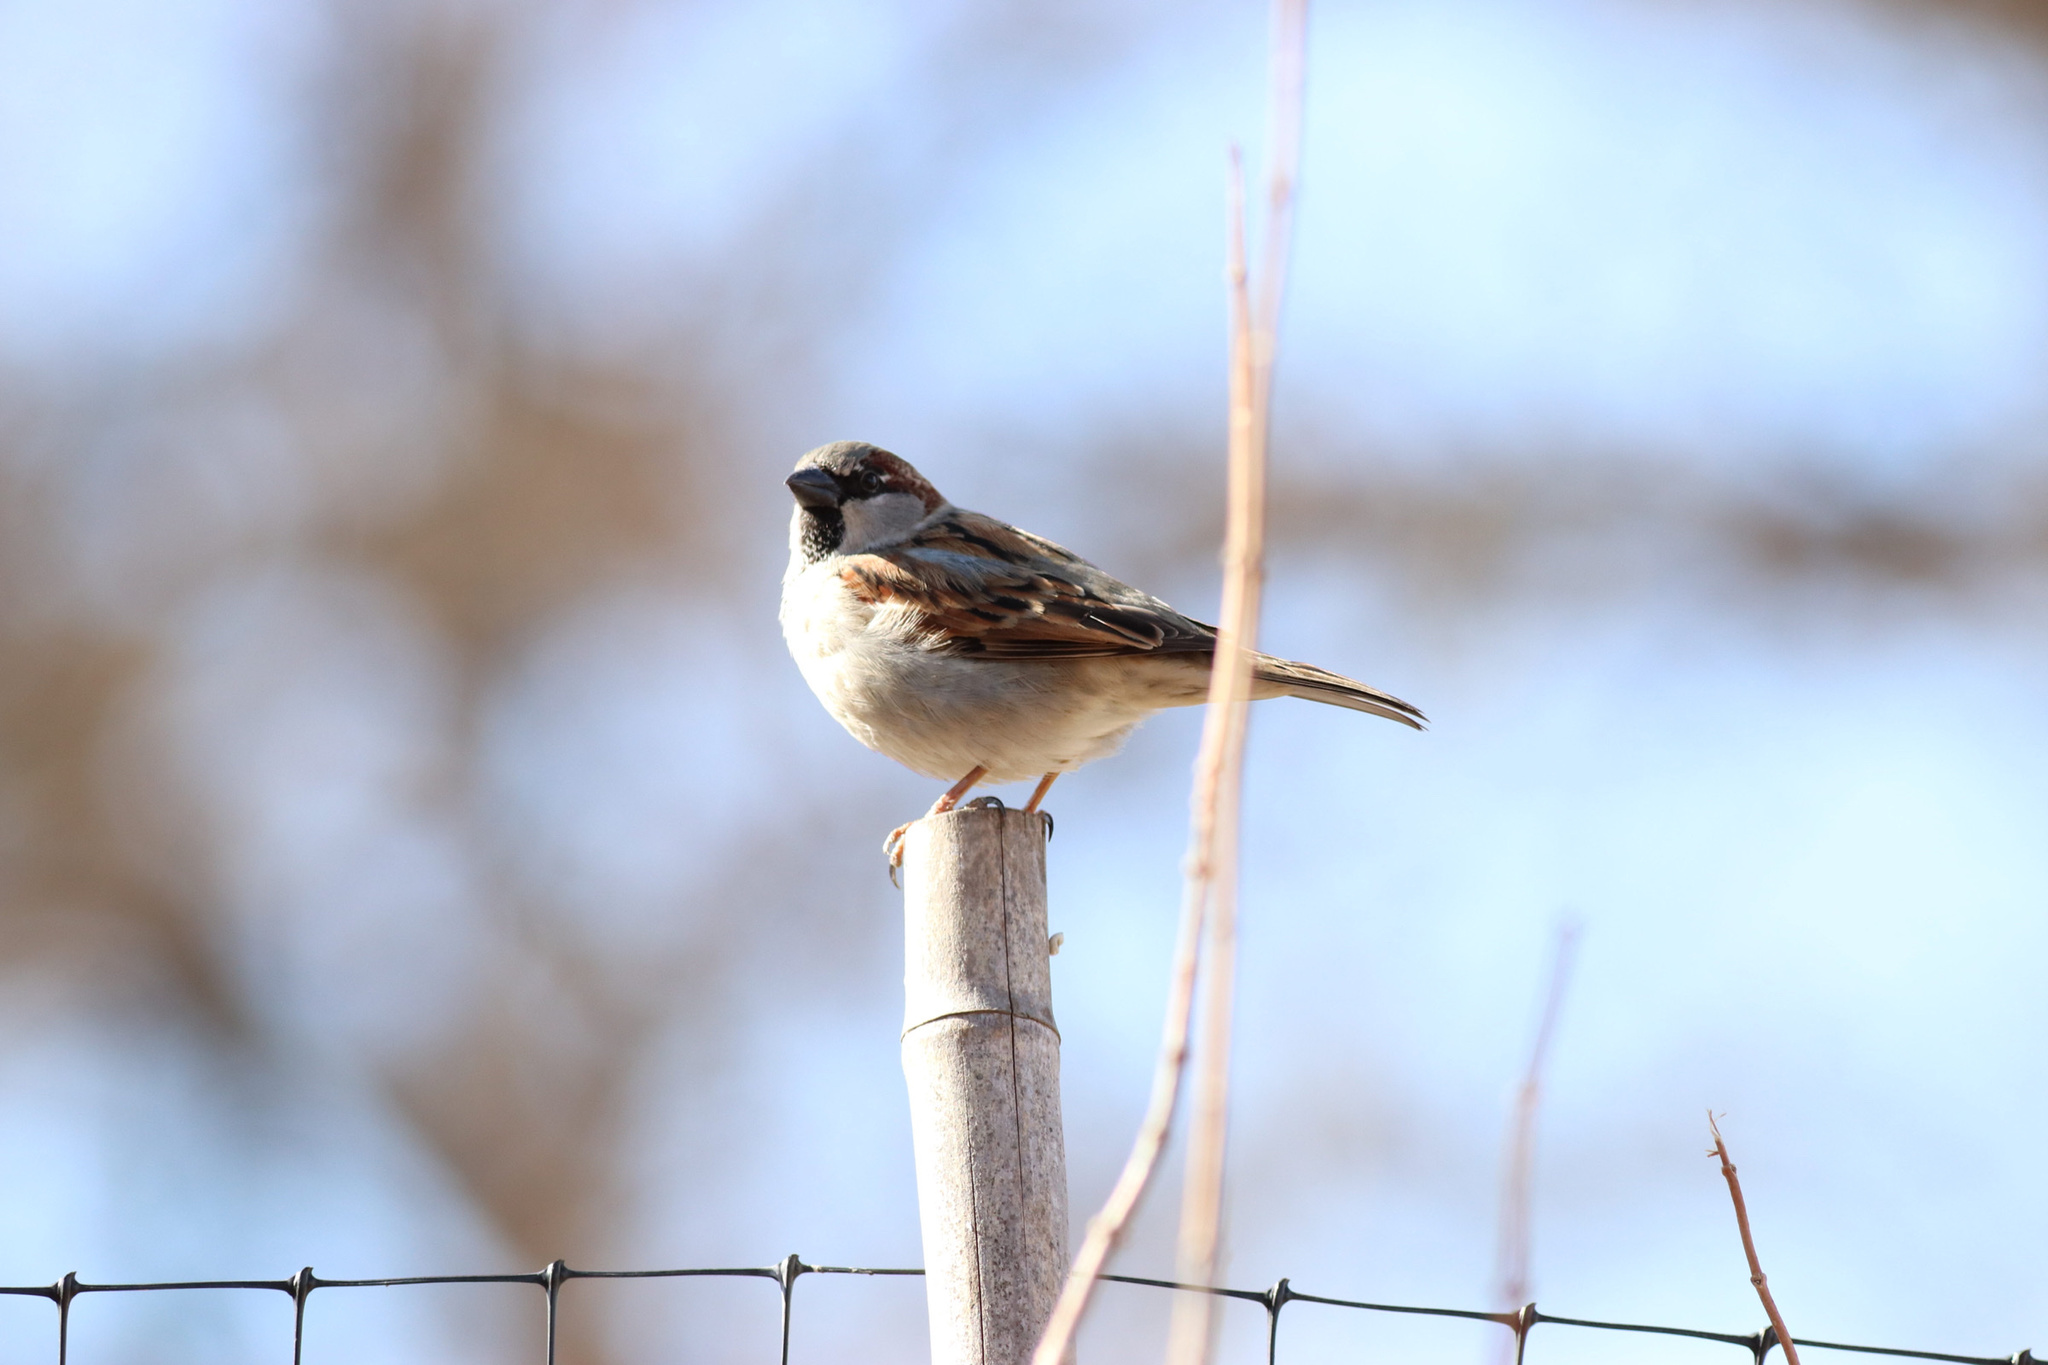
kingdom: Animalia
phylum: Chordata
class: Aves
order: Passeriformes
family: Passeridae
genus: Passer
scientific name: Passer domesticus
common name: House sparrow
